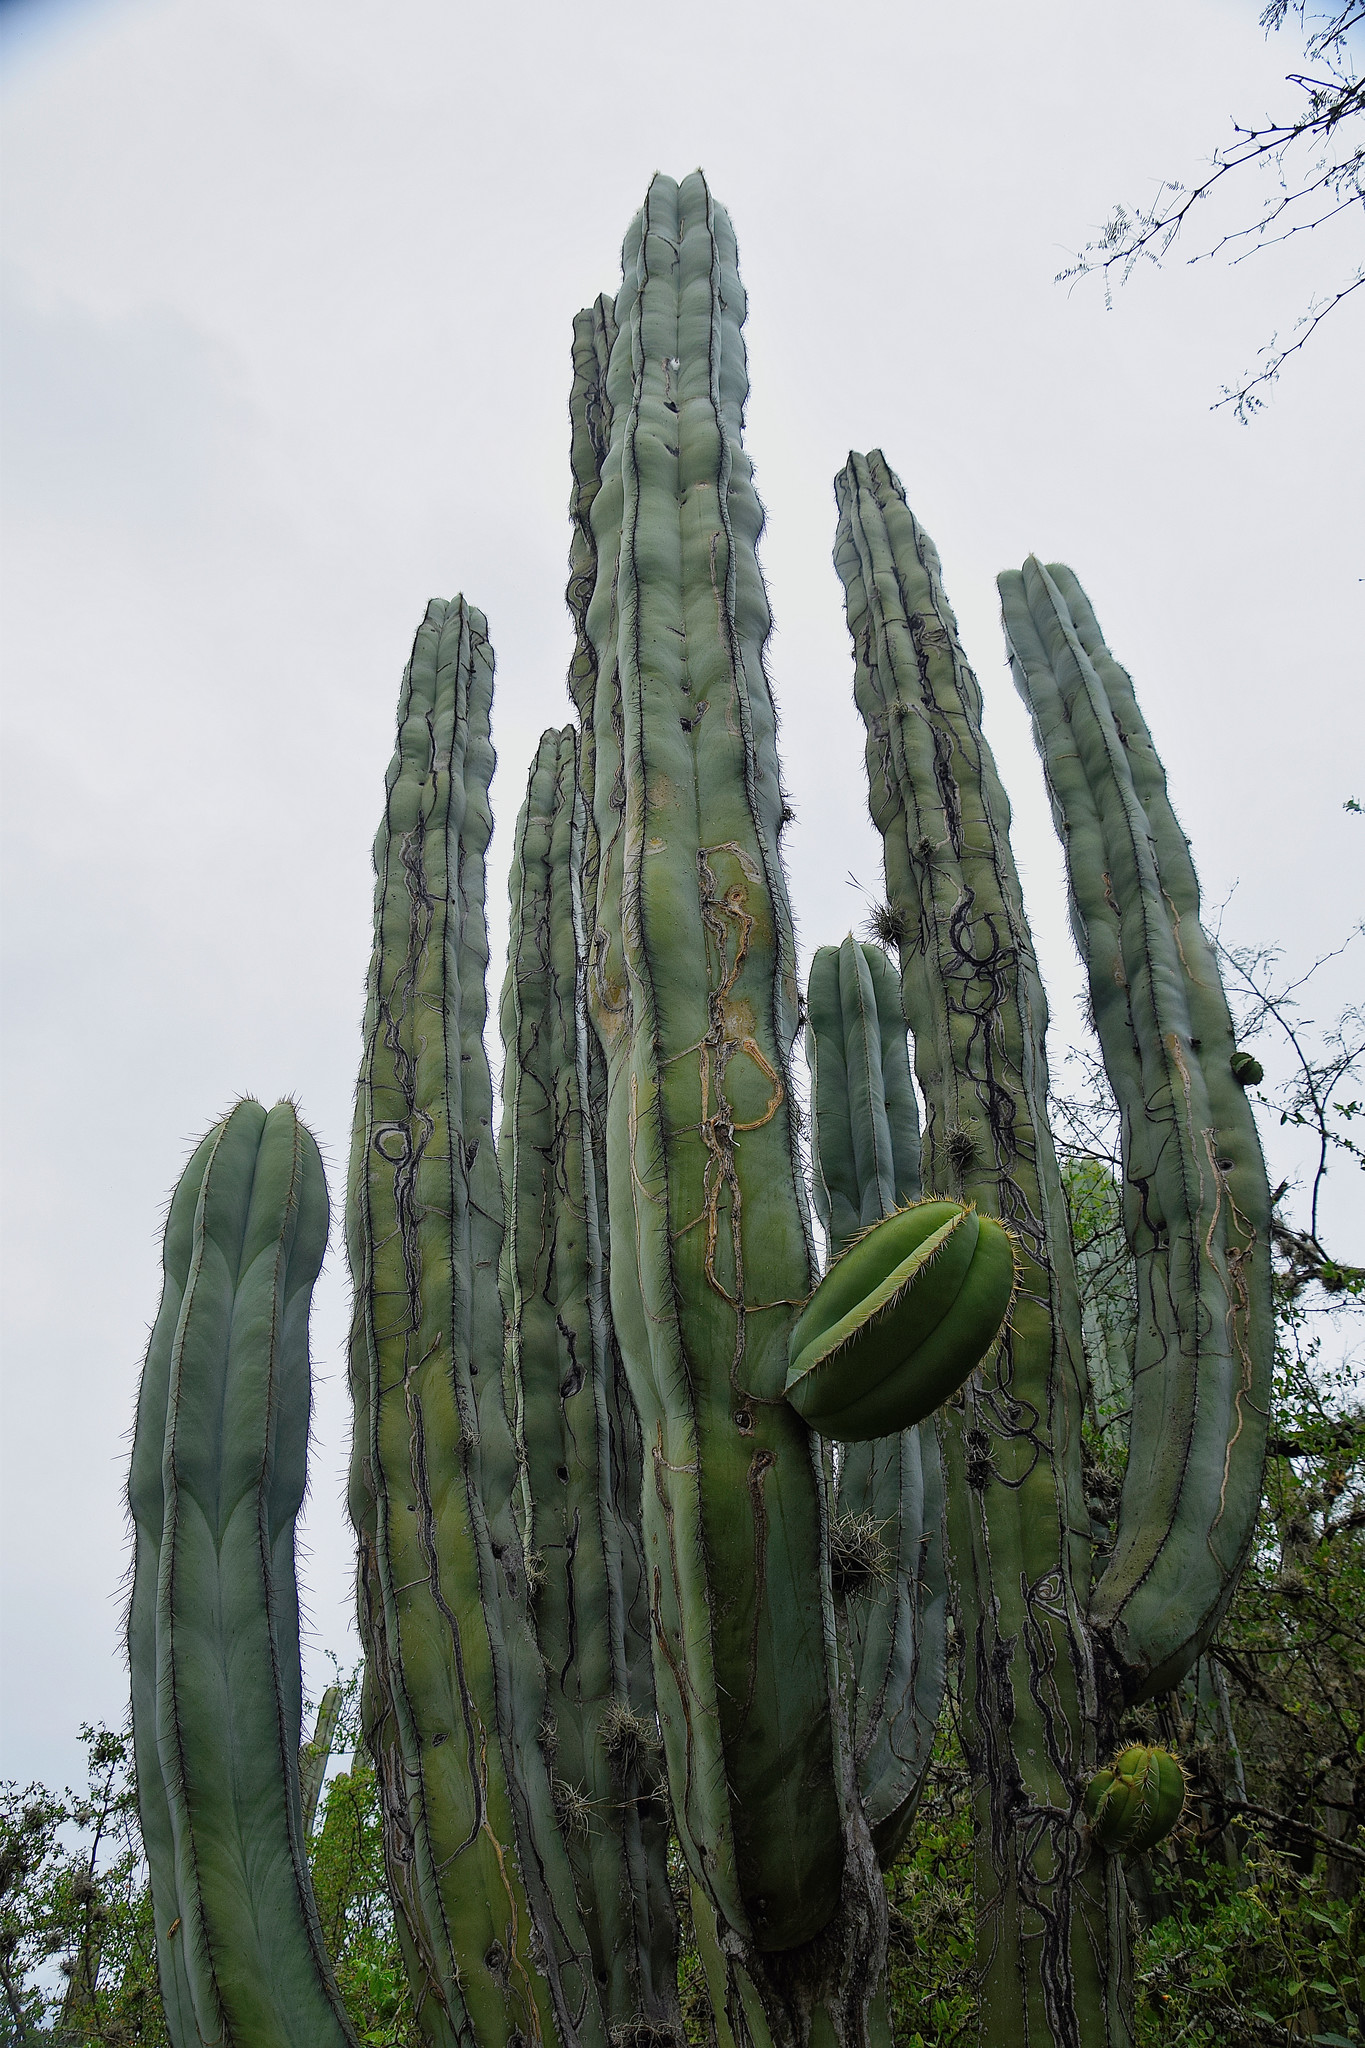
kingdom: Plantae
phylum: Tracheophyta
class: Magnoliopsida
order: Caryophyllales
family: Cactaceae
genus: Stenocereus
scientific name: Stenocereus dumortieri
